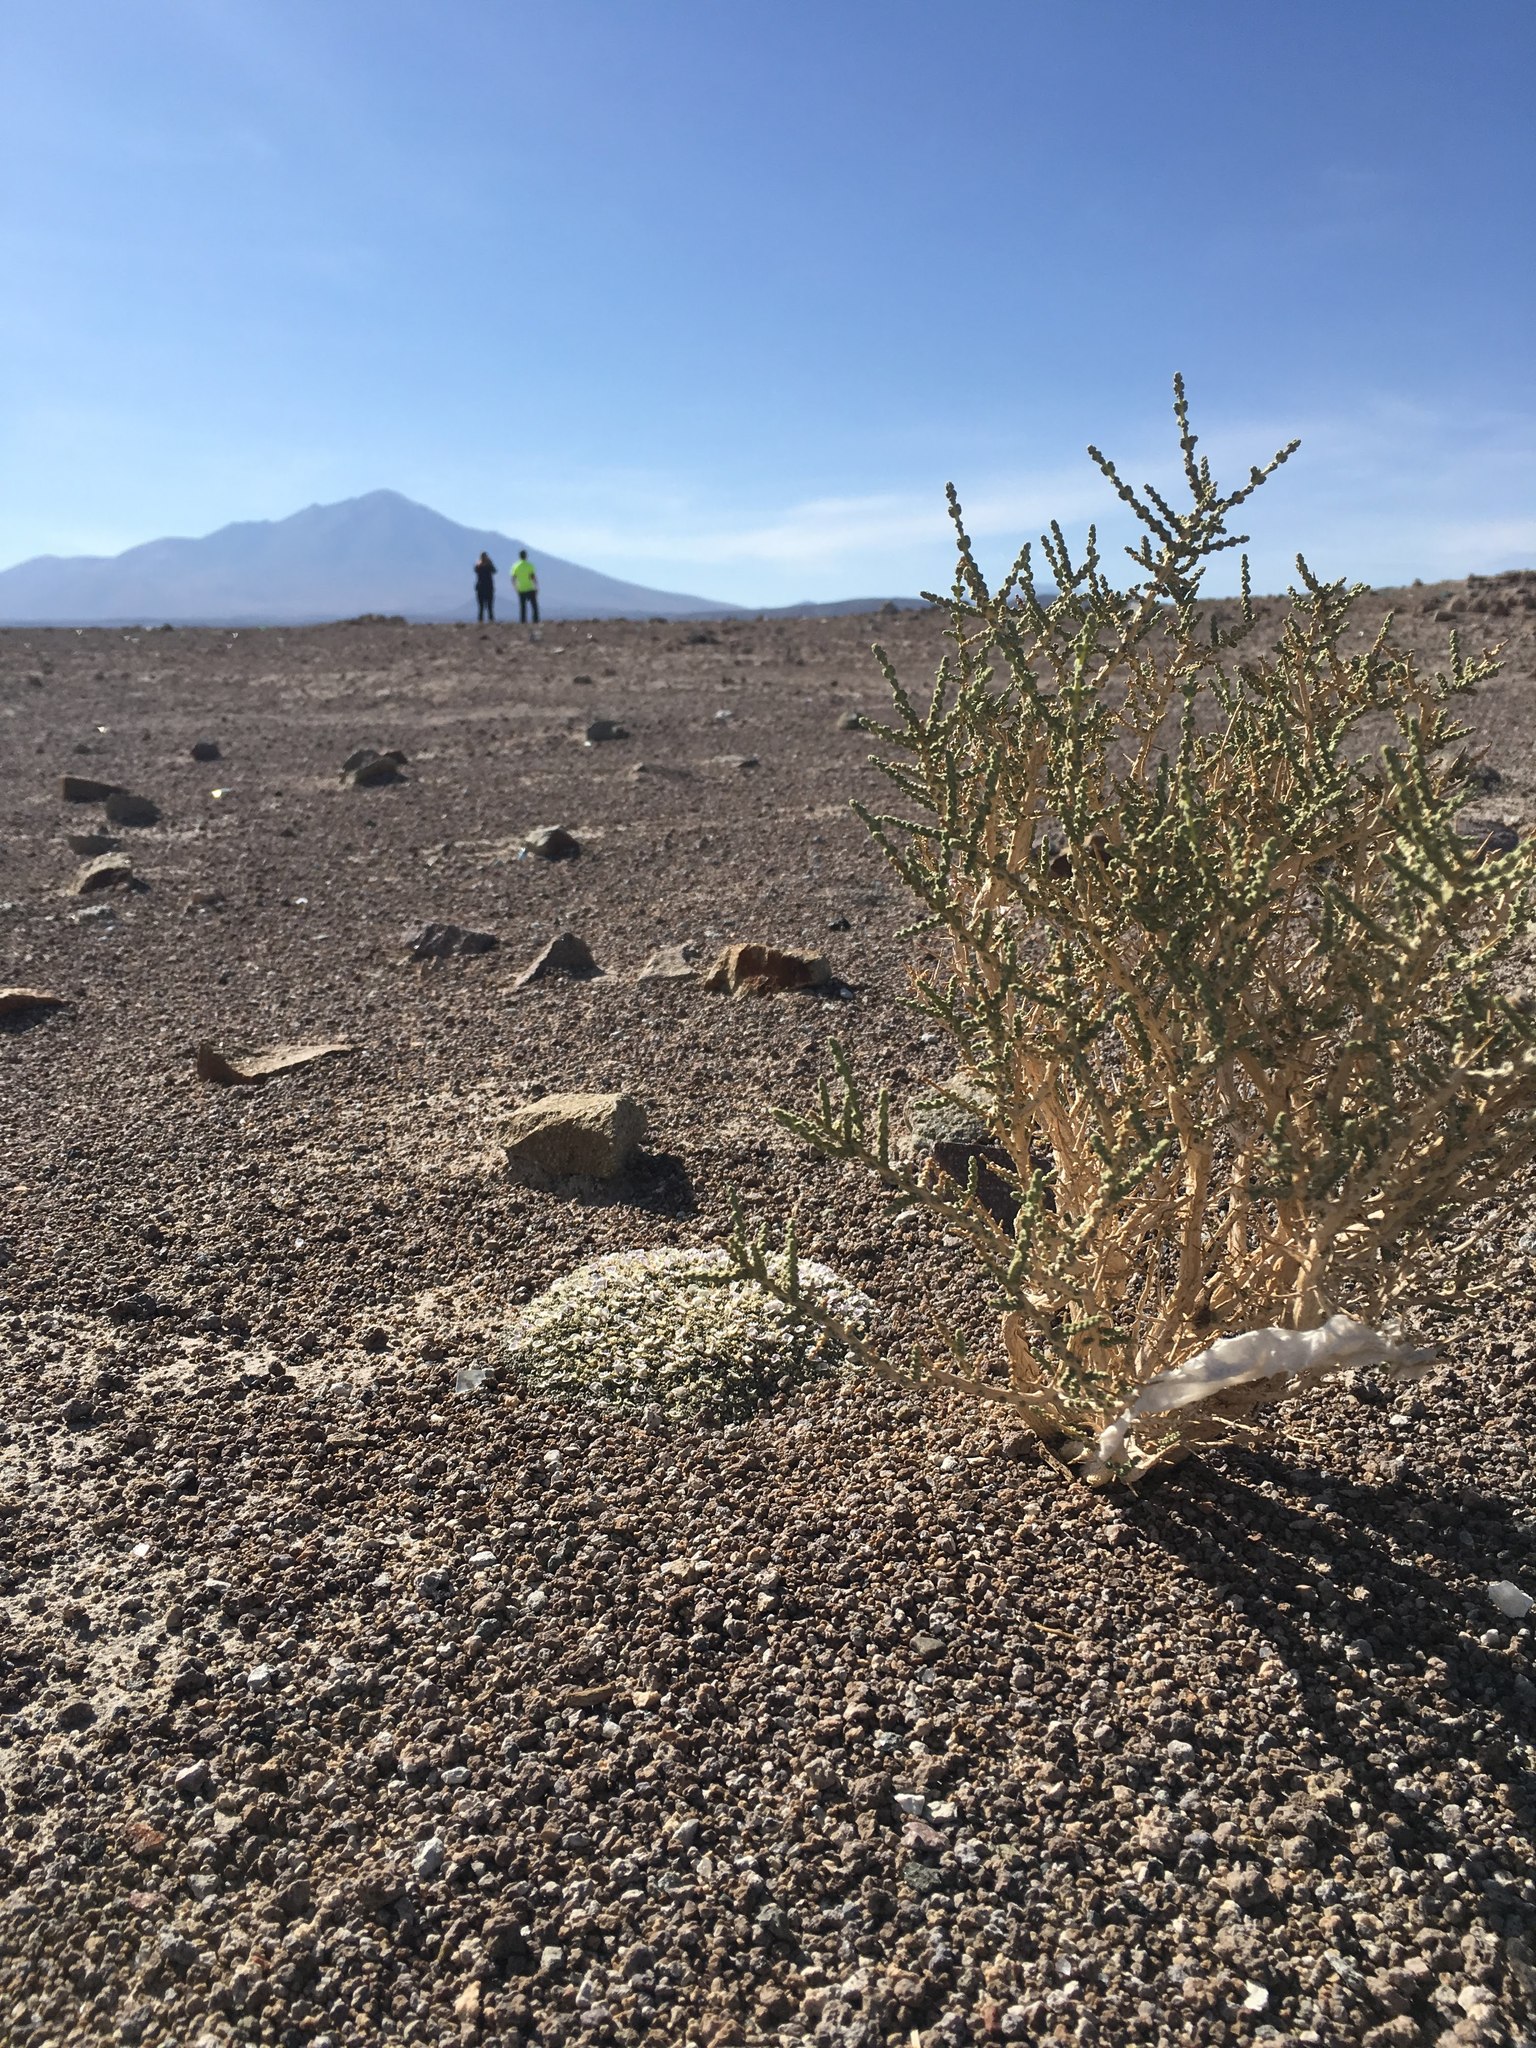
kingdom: Plantae
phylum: Tracheophyta
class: Magnoliopsida
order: Lamiales
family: Verbenaceae
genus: Aloysia
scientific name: Aloysia deserticola
